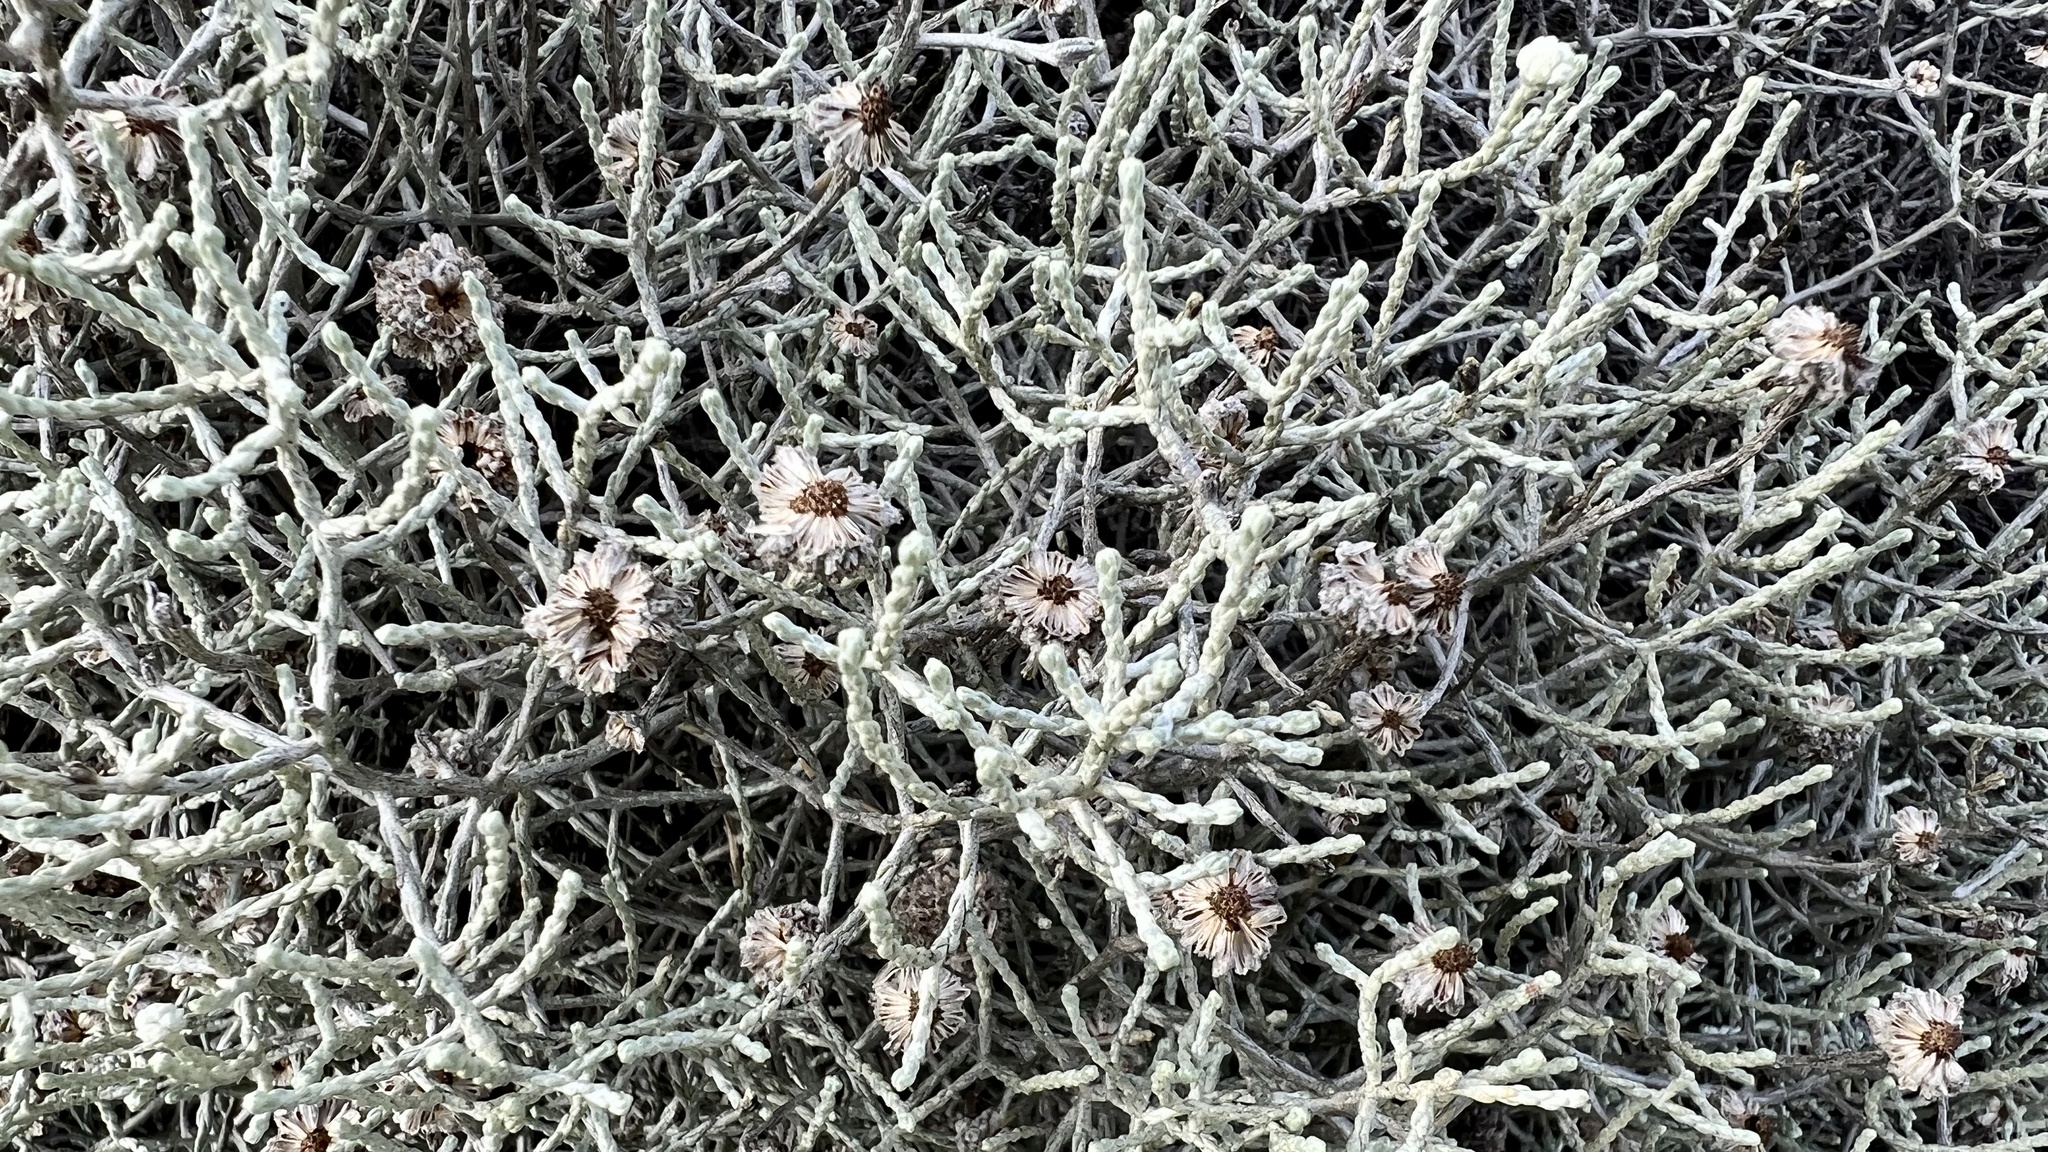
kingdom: Plantae
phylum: Tracheophyta
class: Magnoliopsida
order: Asterales
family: Asteraceae
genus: Calocephalus
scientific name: Calocephalus brownii
